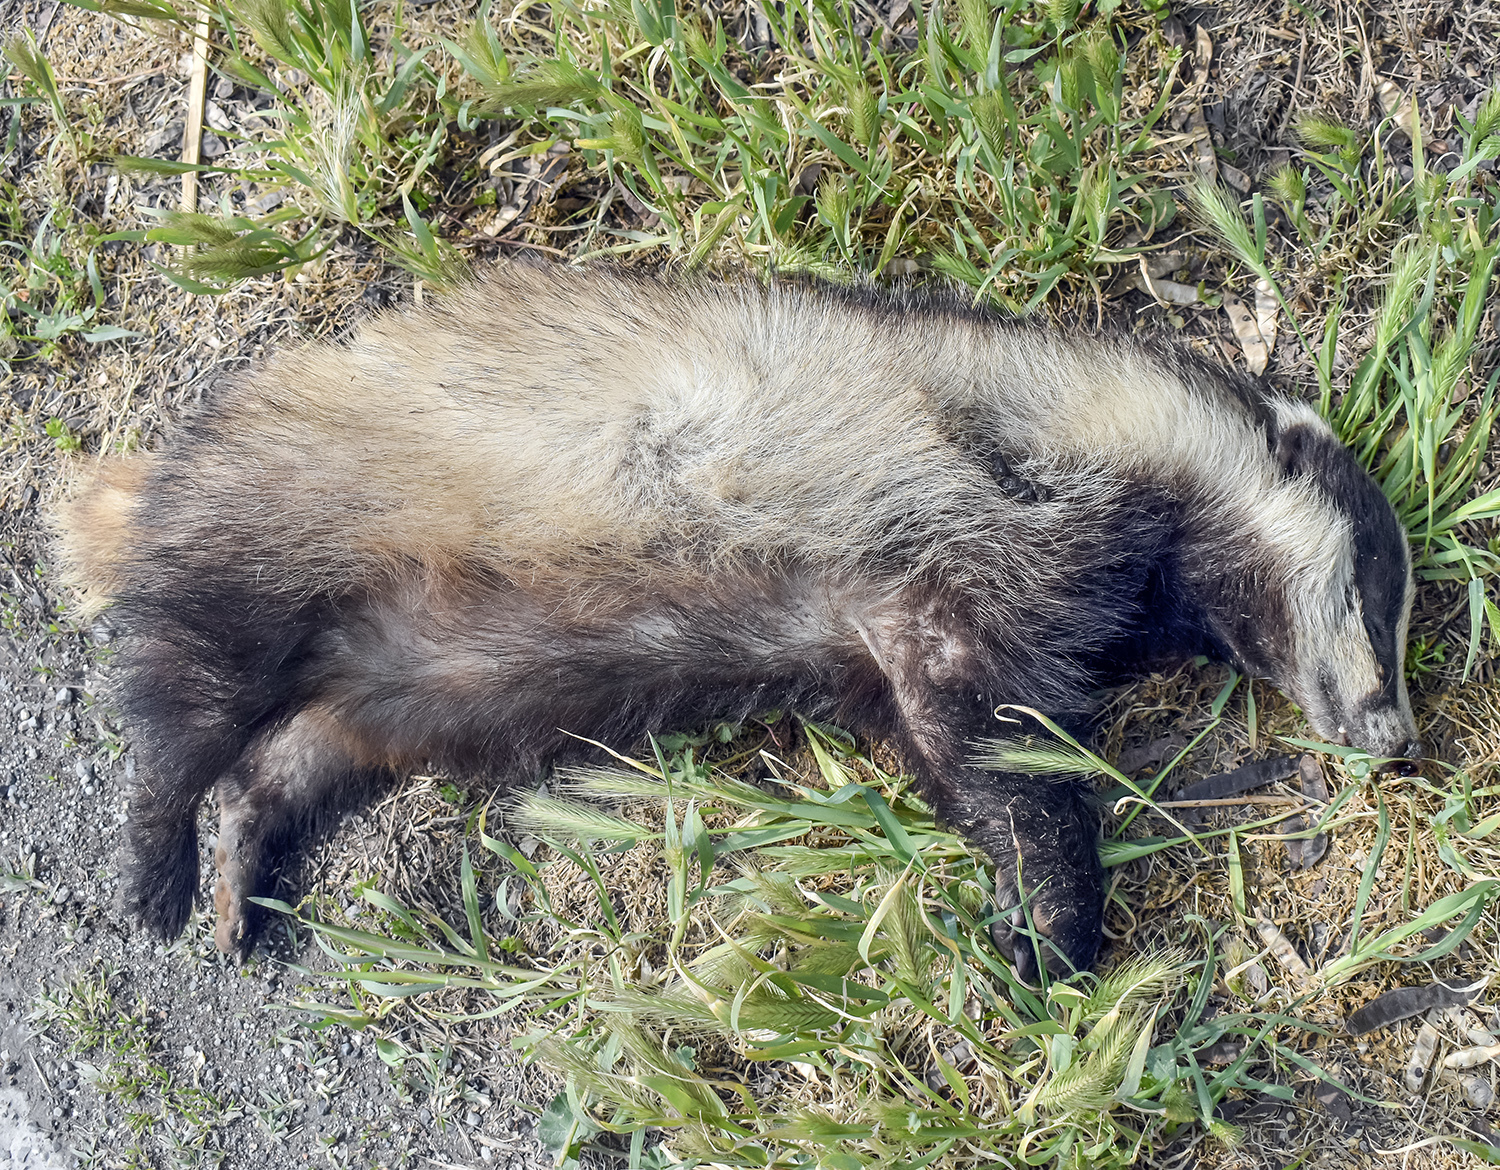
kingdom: Animalia
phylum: Chordata
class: Mammalia
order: Carnivora
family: Mustelidae
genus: Meles
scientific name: Meles meles
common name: Eurasian badger
